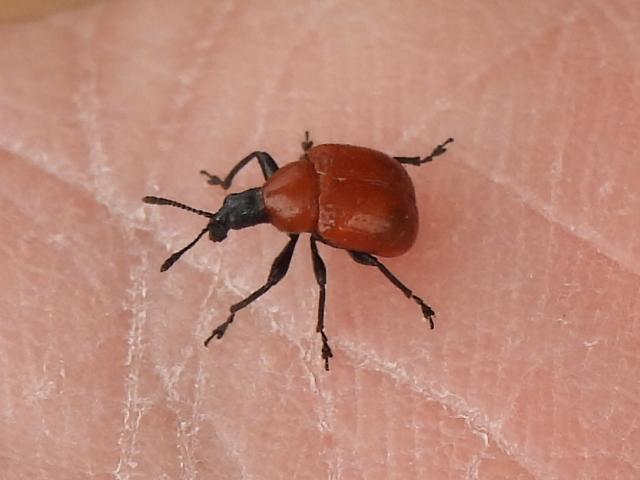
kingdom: Animalia
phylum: Arthropoda
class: Insecta
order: Coleoptera
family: Attelabidae
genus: Homoeolabus
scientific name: Homoeolabus analis
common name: Oak leaf rolling weevil
